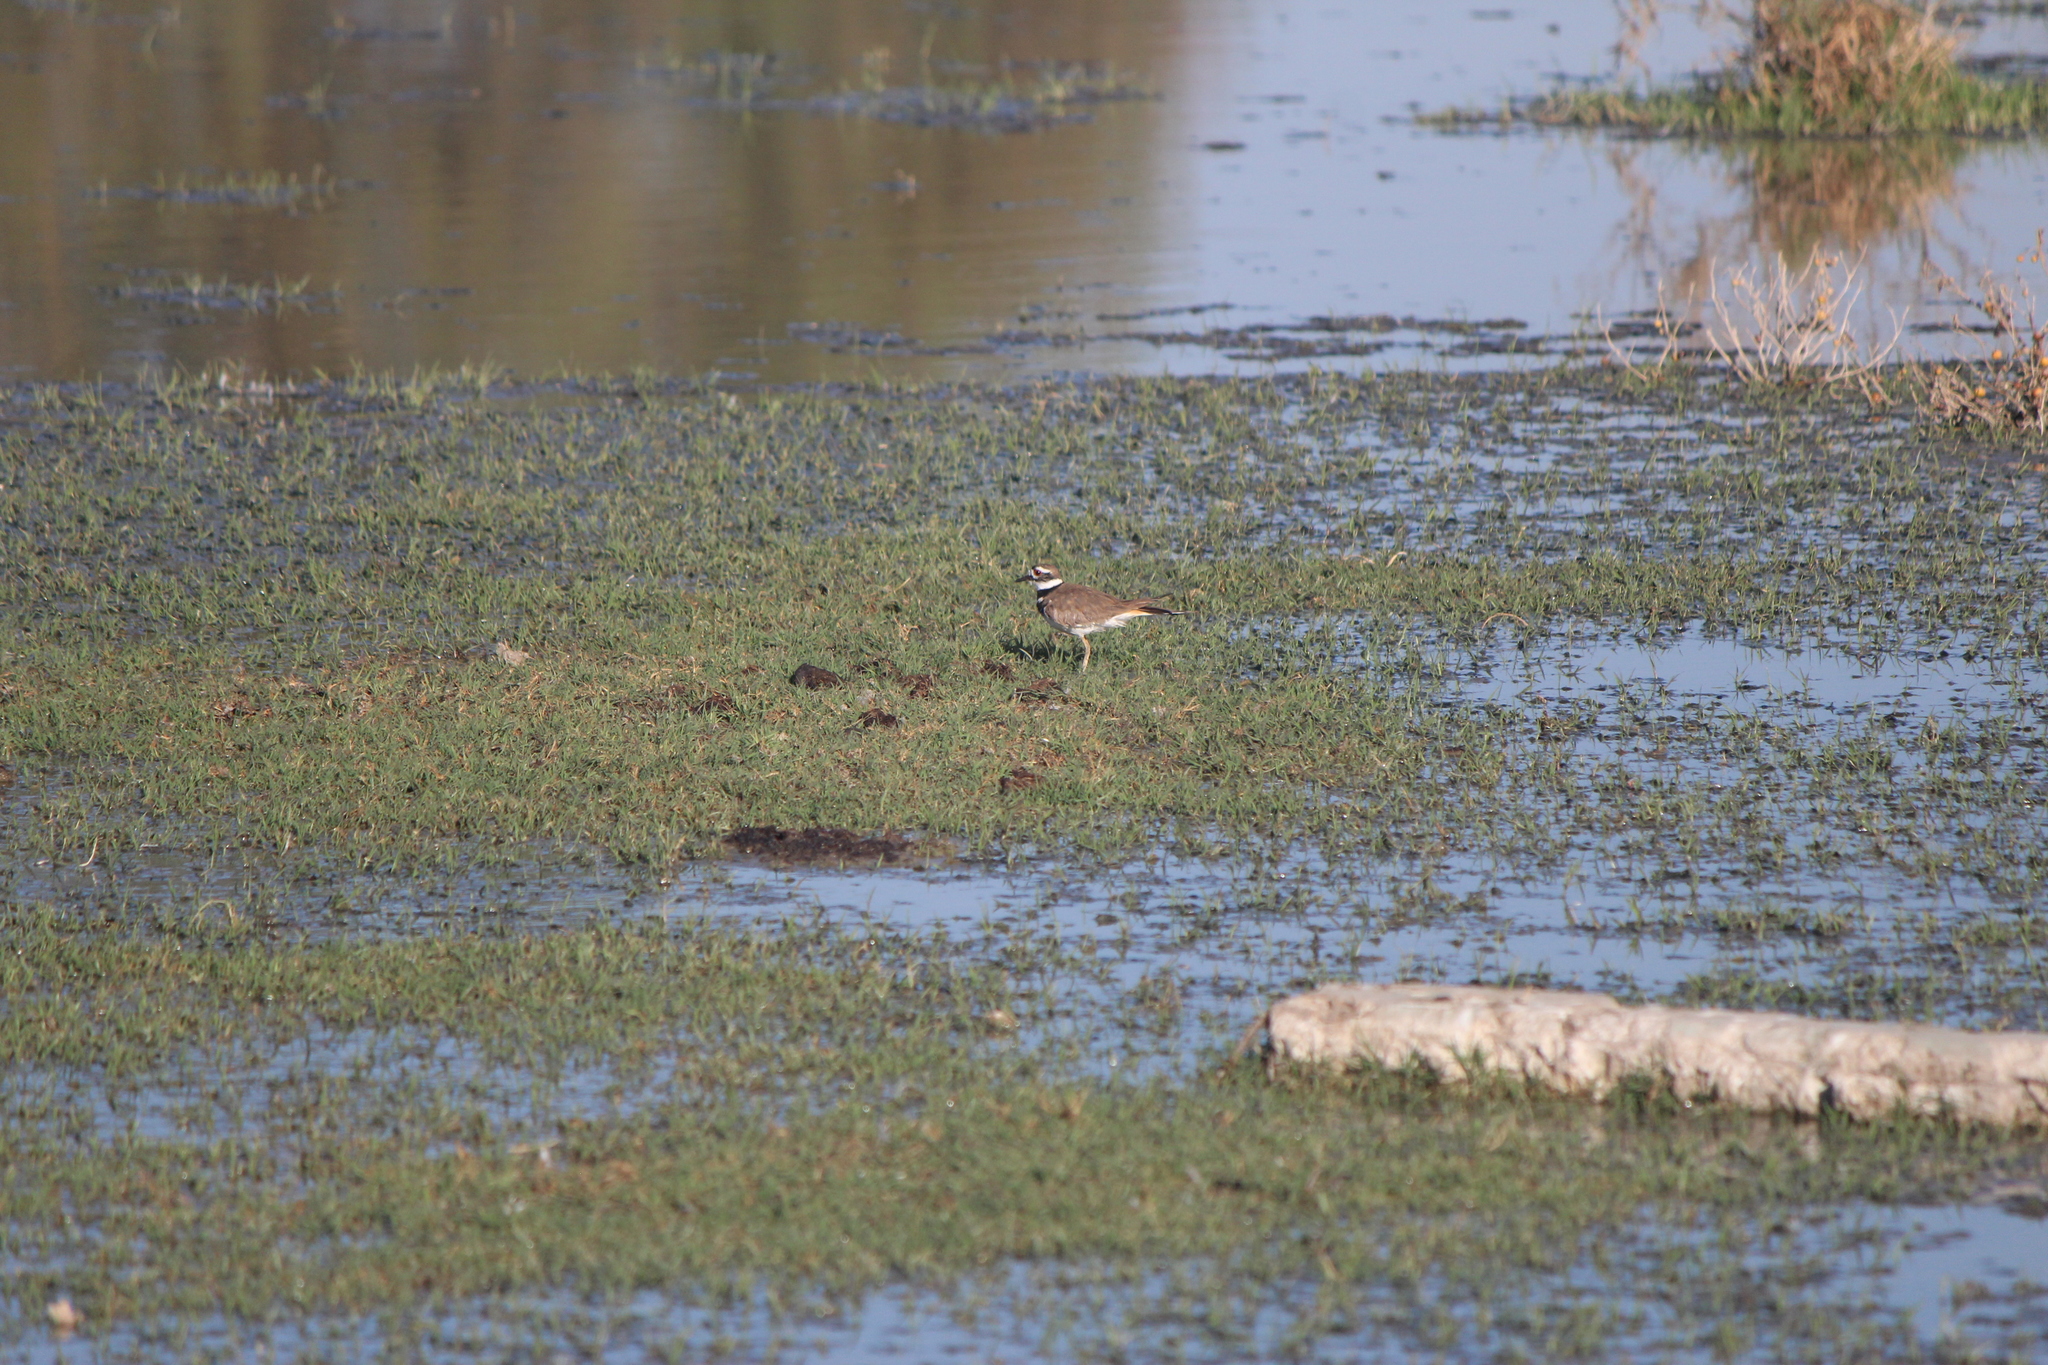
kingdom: Animalia
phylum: Chordata
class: Aves
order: Charadriiformes
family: Charadriidae
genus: Charadrius
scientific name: Charadrius vociferus
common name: Killdeer
